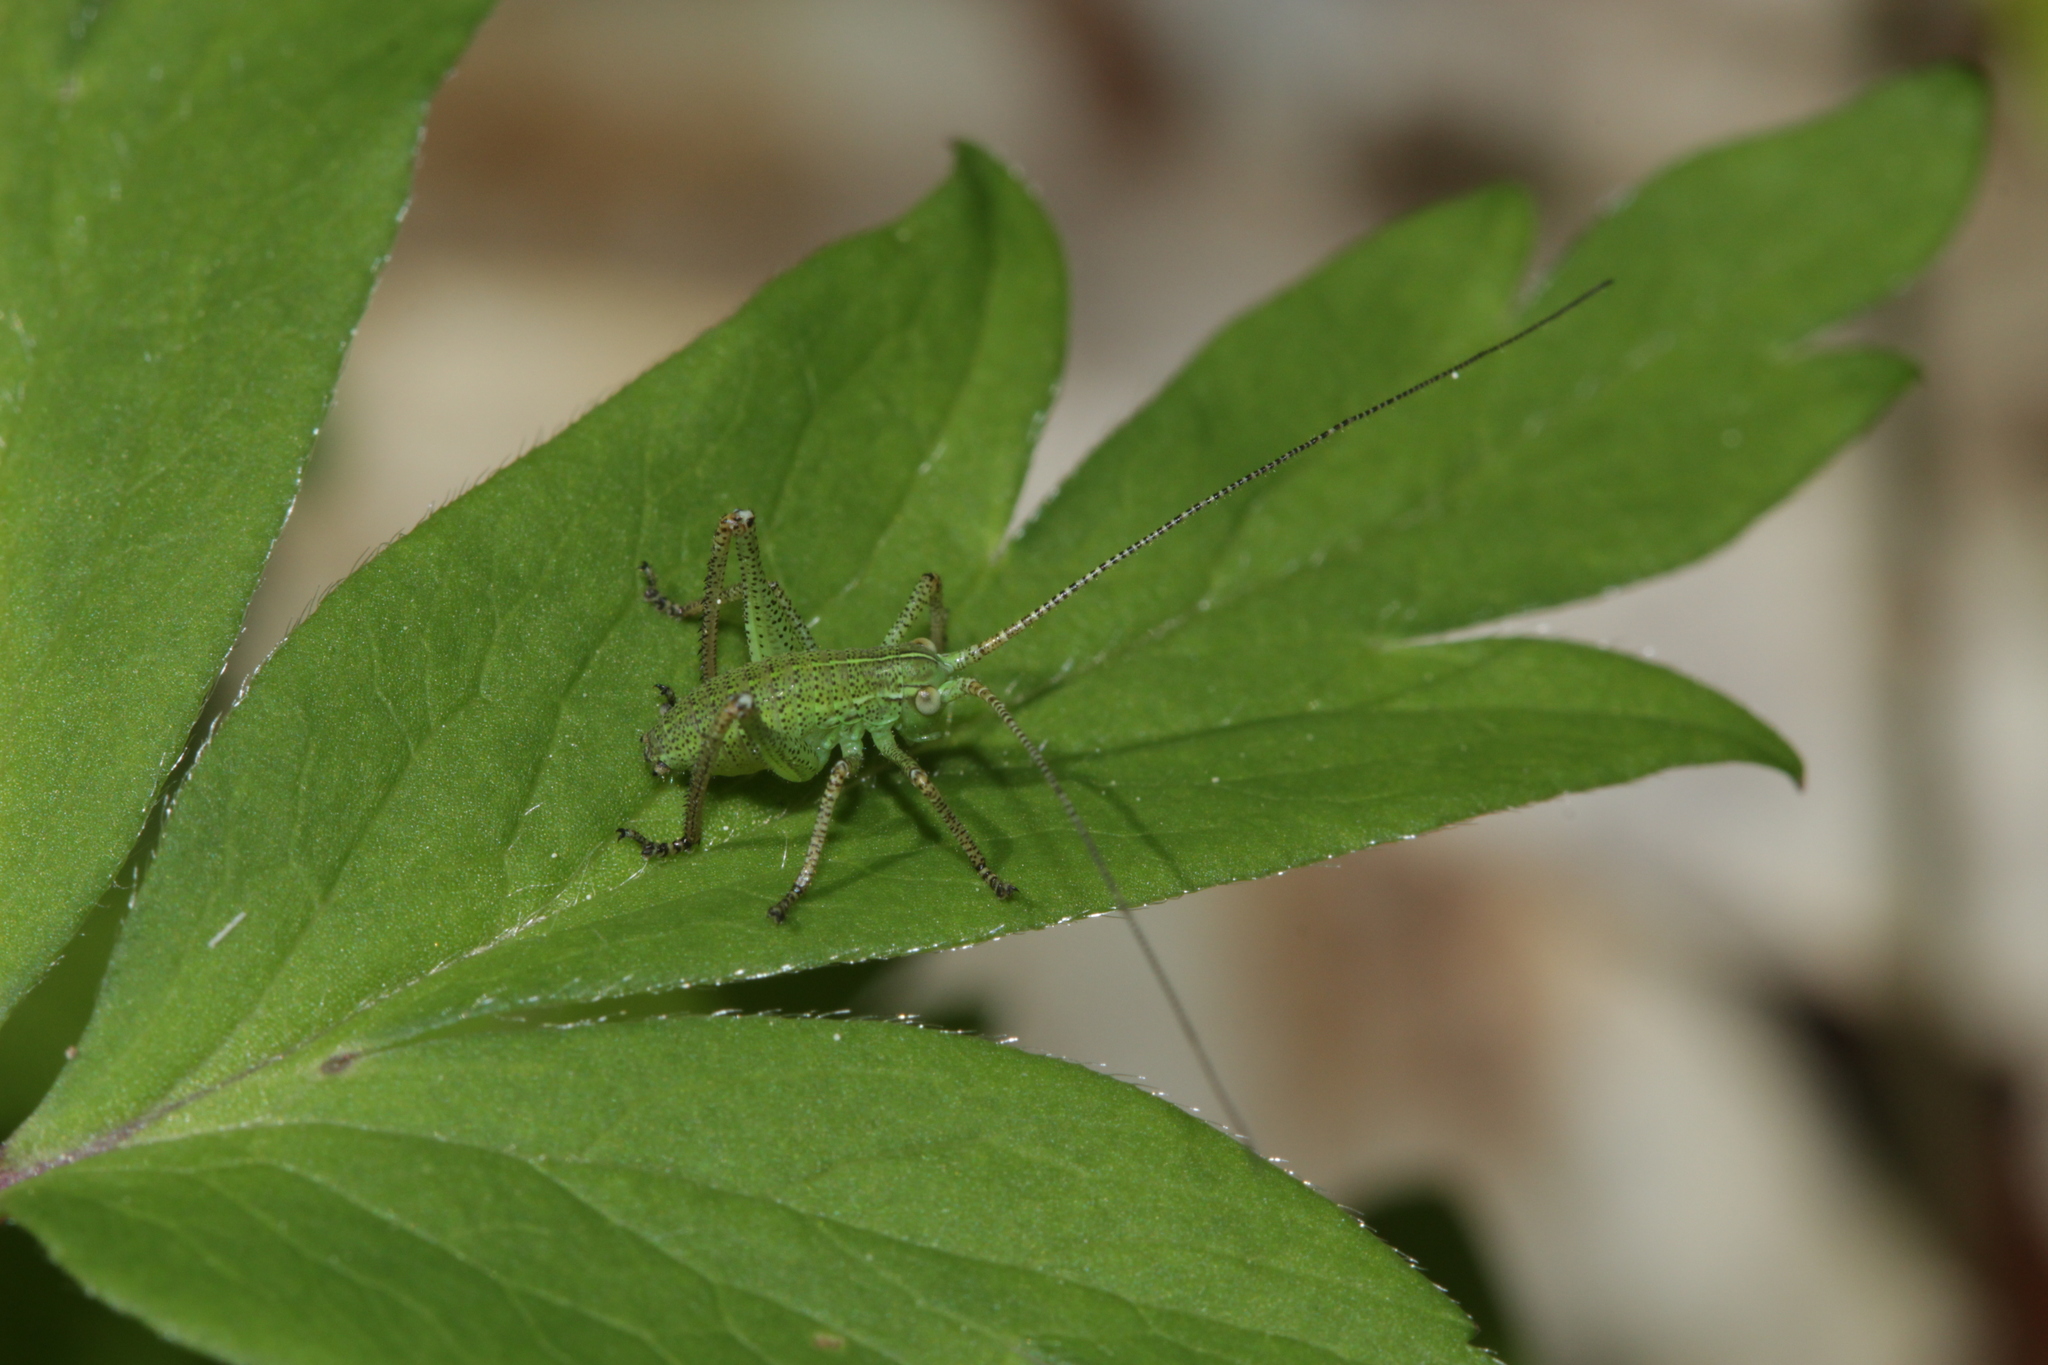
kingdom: Animalia
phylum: Arthropoda
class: Insecta
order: Orthoptera
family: Tettigoniidae
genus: Barbitistes
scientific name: Barbitistes serricauda
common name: Saw-tailed bush-cricket
